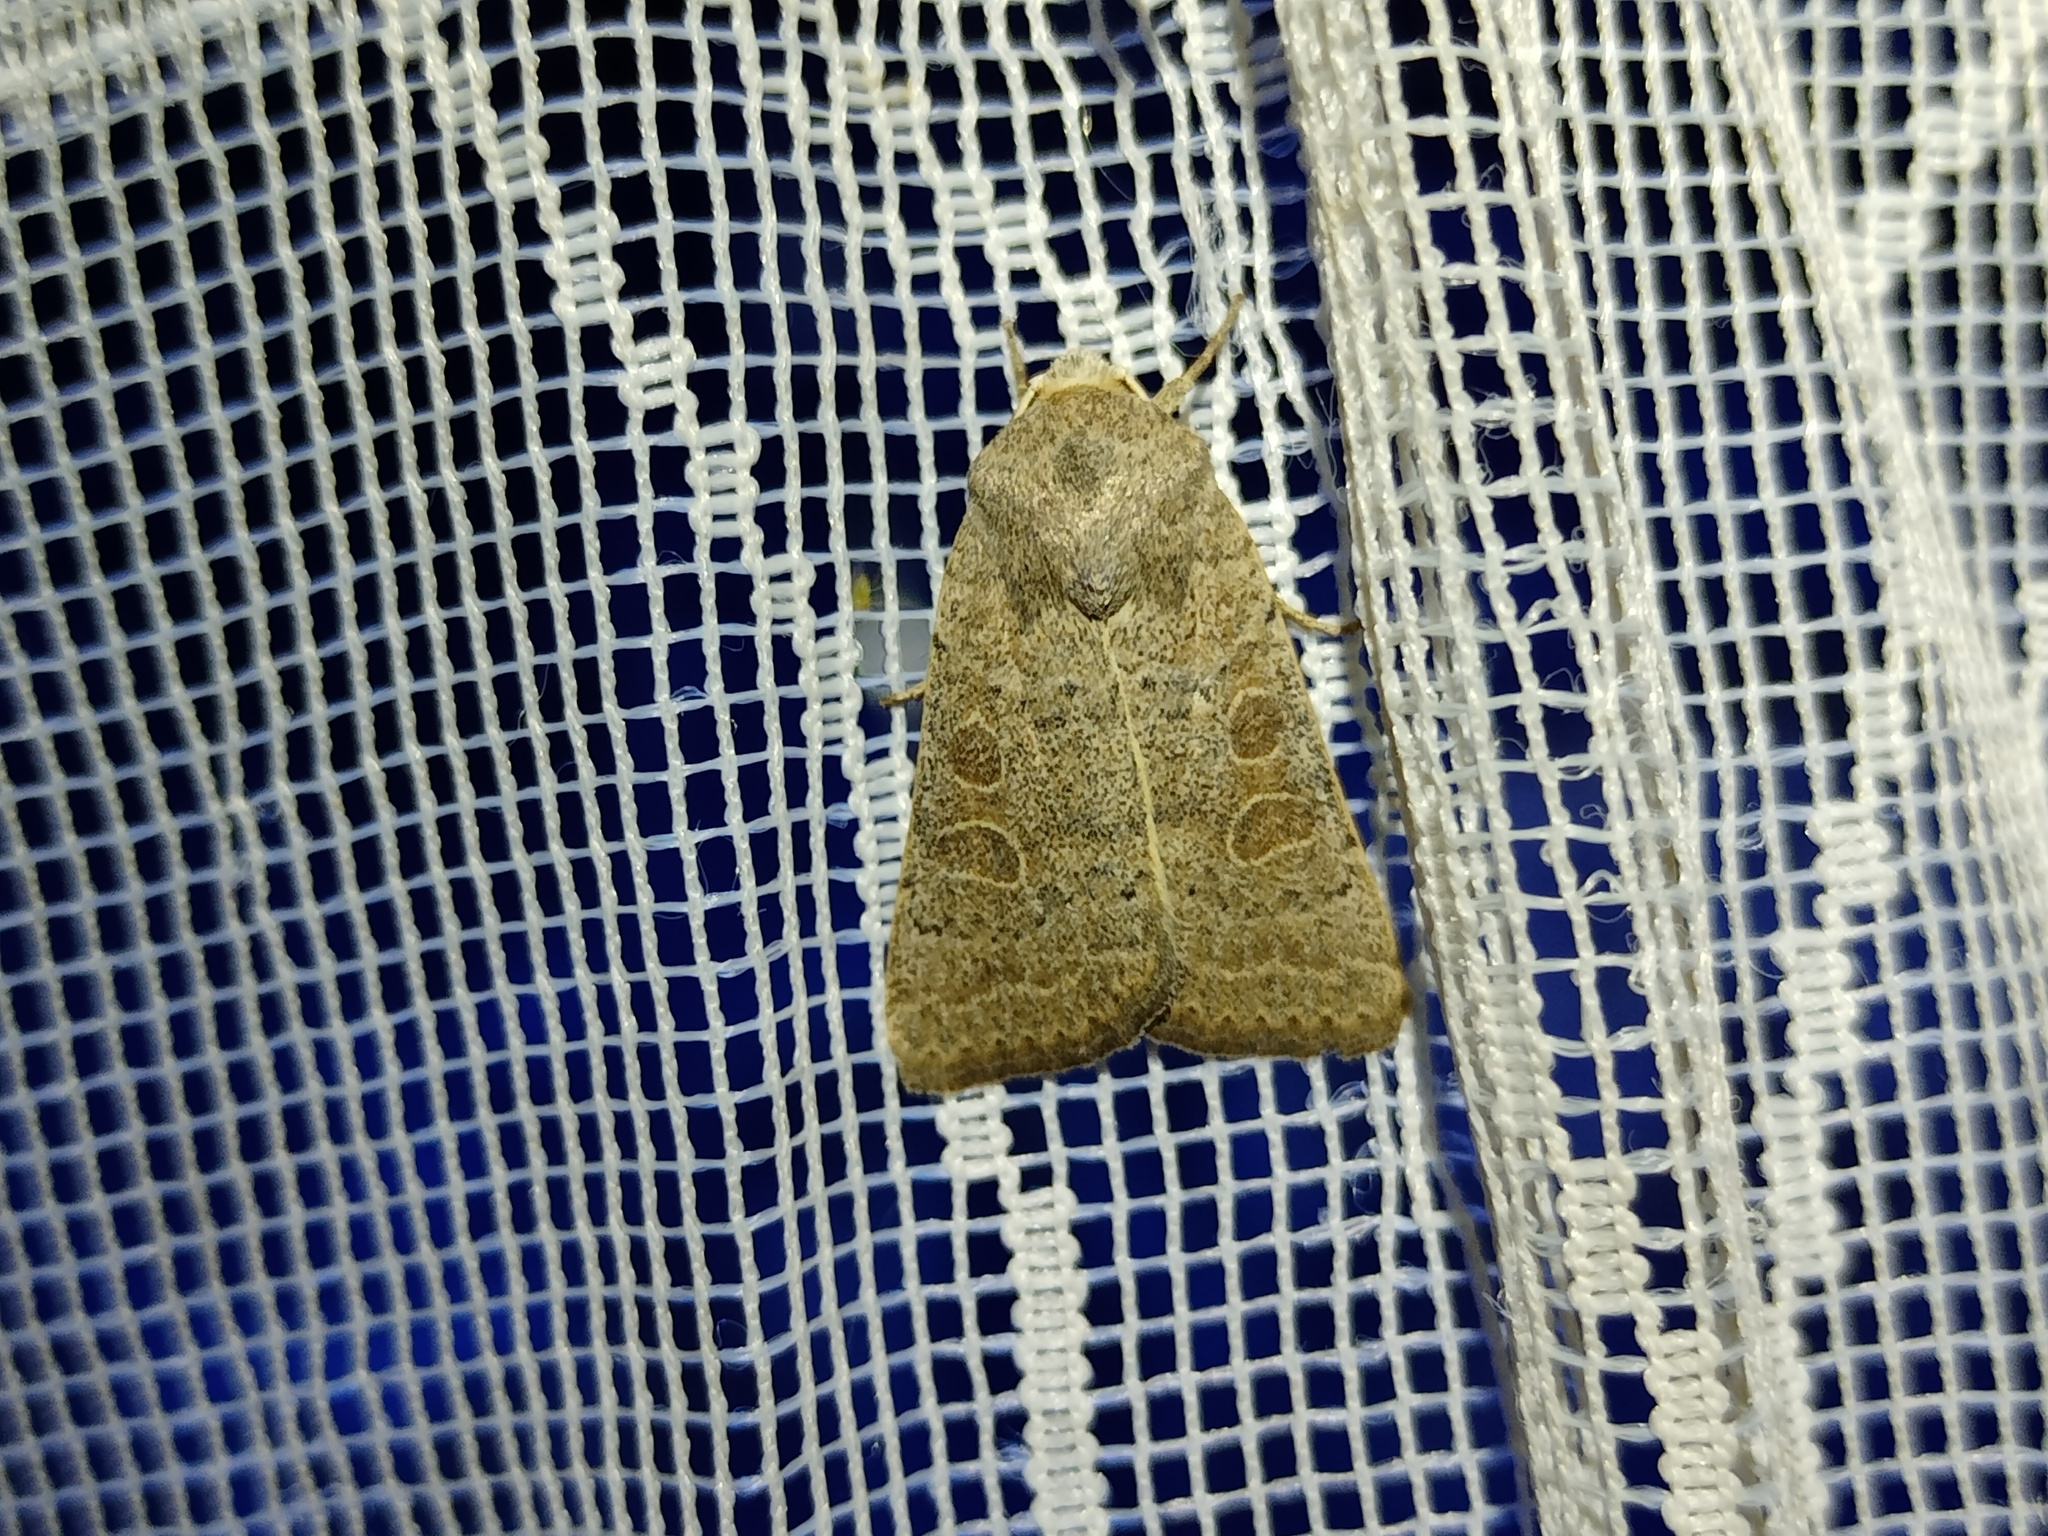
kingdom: Animalia
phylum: Arthropoda
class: Insecta
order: Lepidoptera
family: Noctuidae
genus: Hoplodrina
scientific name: Hoplodrina ambigua
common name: Vine's rustic
